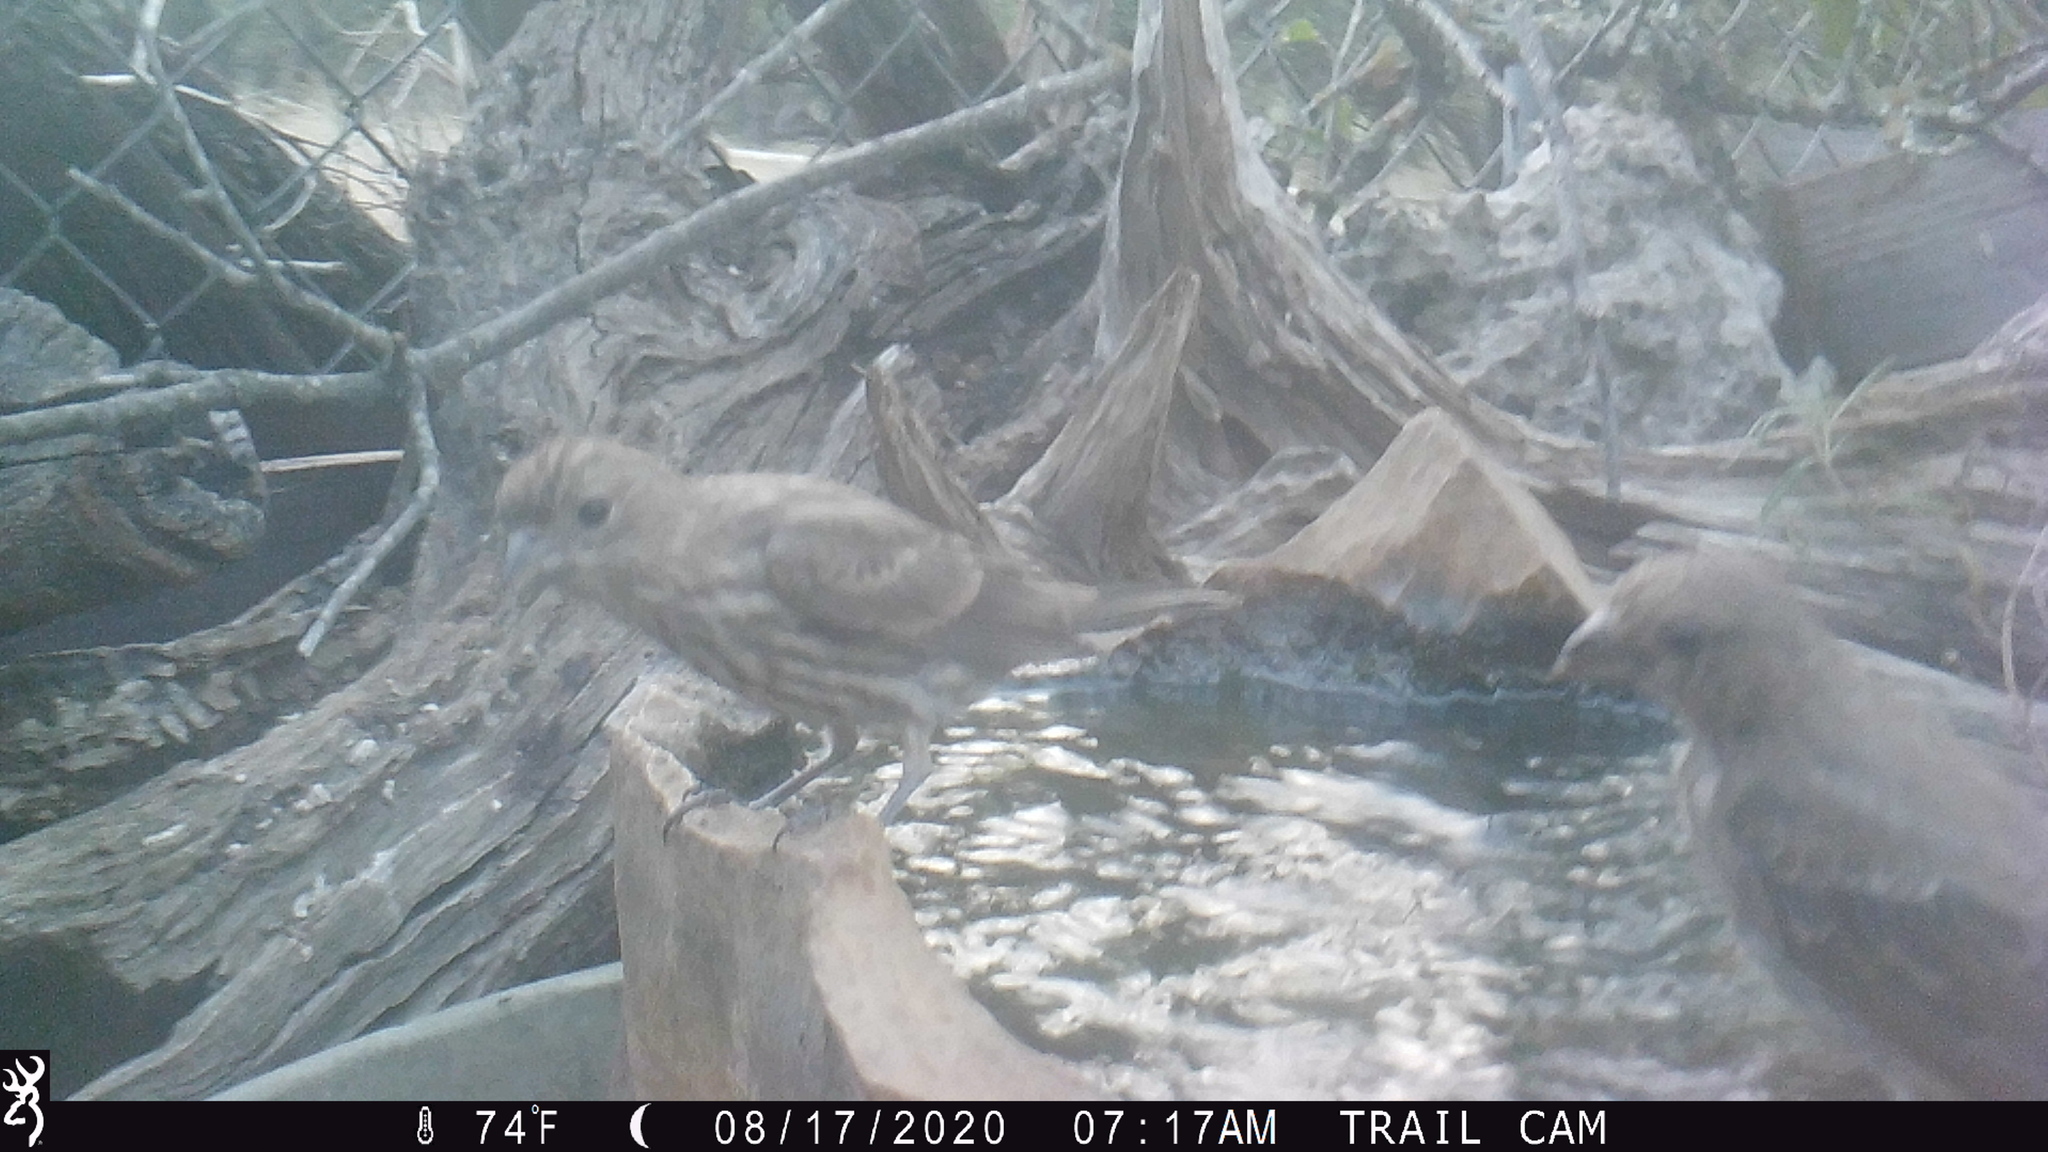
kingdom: Animalia
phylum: Chordata
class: Aves
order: Passeriformes
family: Fringillidae
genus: Haemorhous
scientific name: Haemorhous mexicanus
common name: House finch
